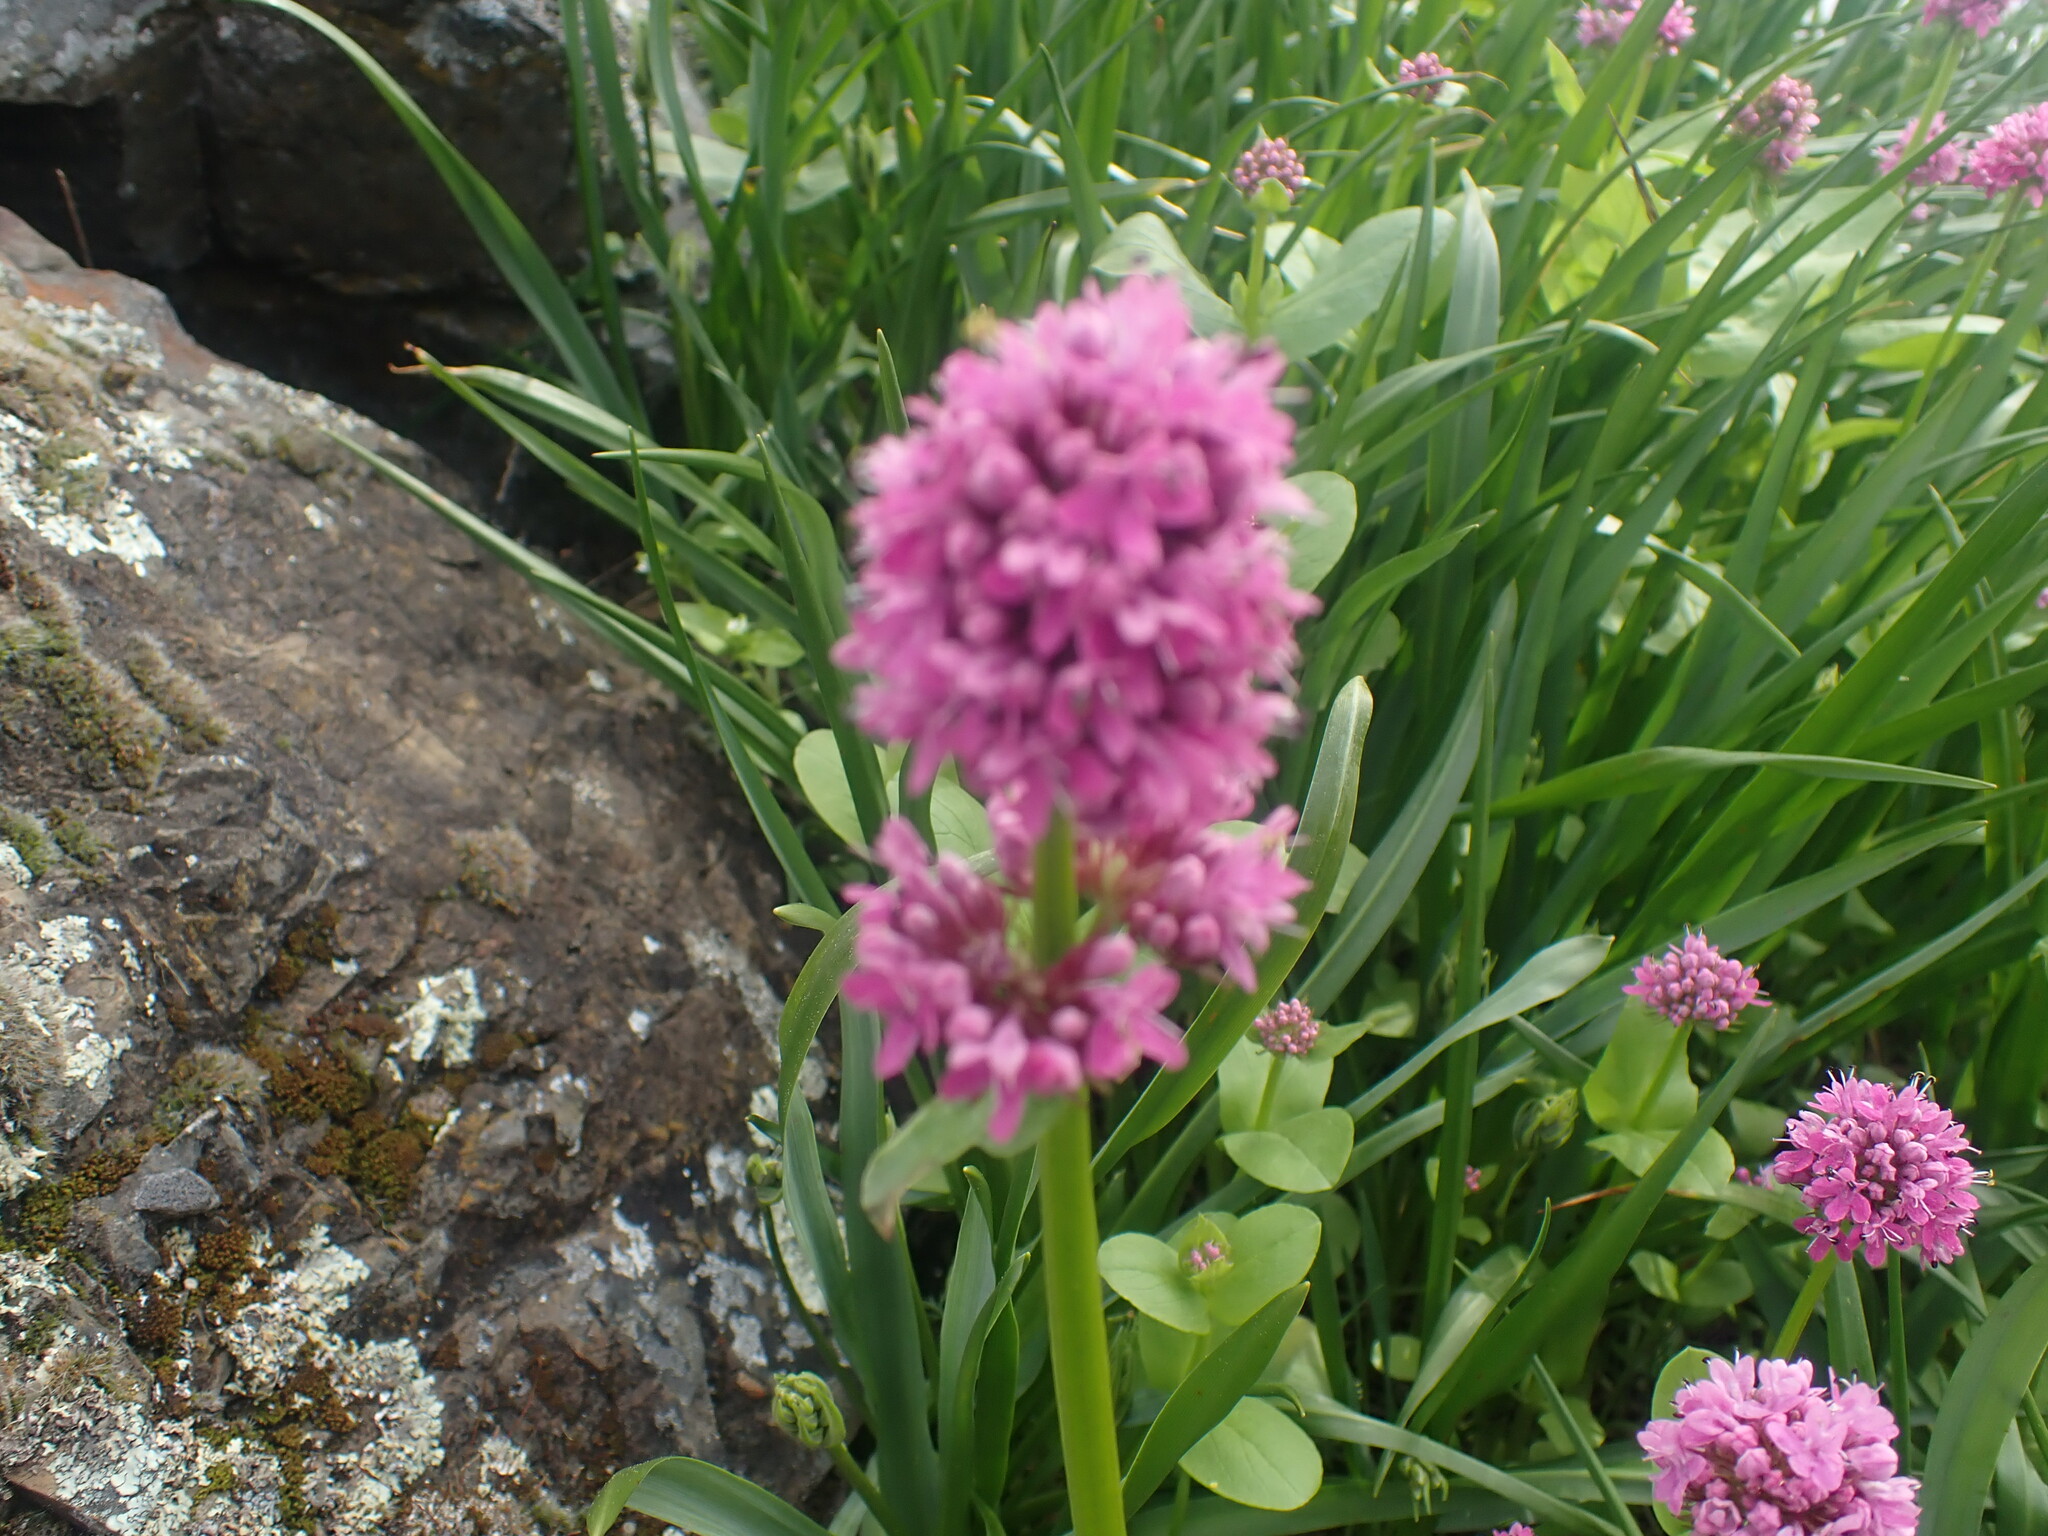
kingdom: Plantae
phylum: Tracheophyta
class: Magnoliopsida
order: Dipsacales
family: Caprifoliaceae
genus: Plectritis
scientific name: Plectritis congesta
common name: Pink plectritis
